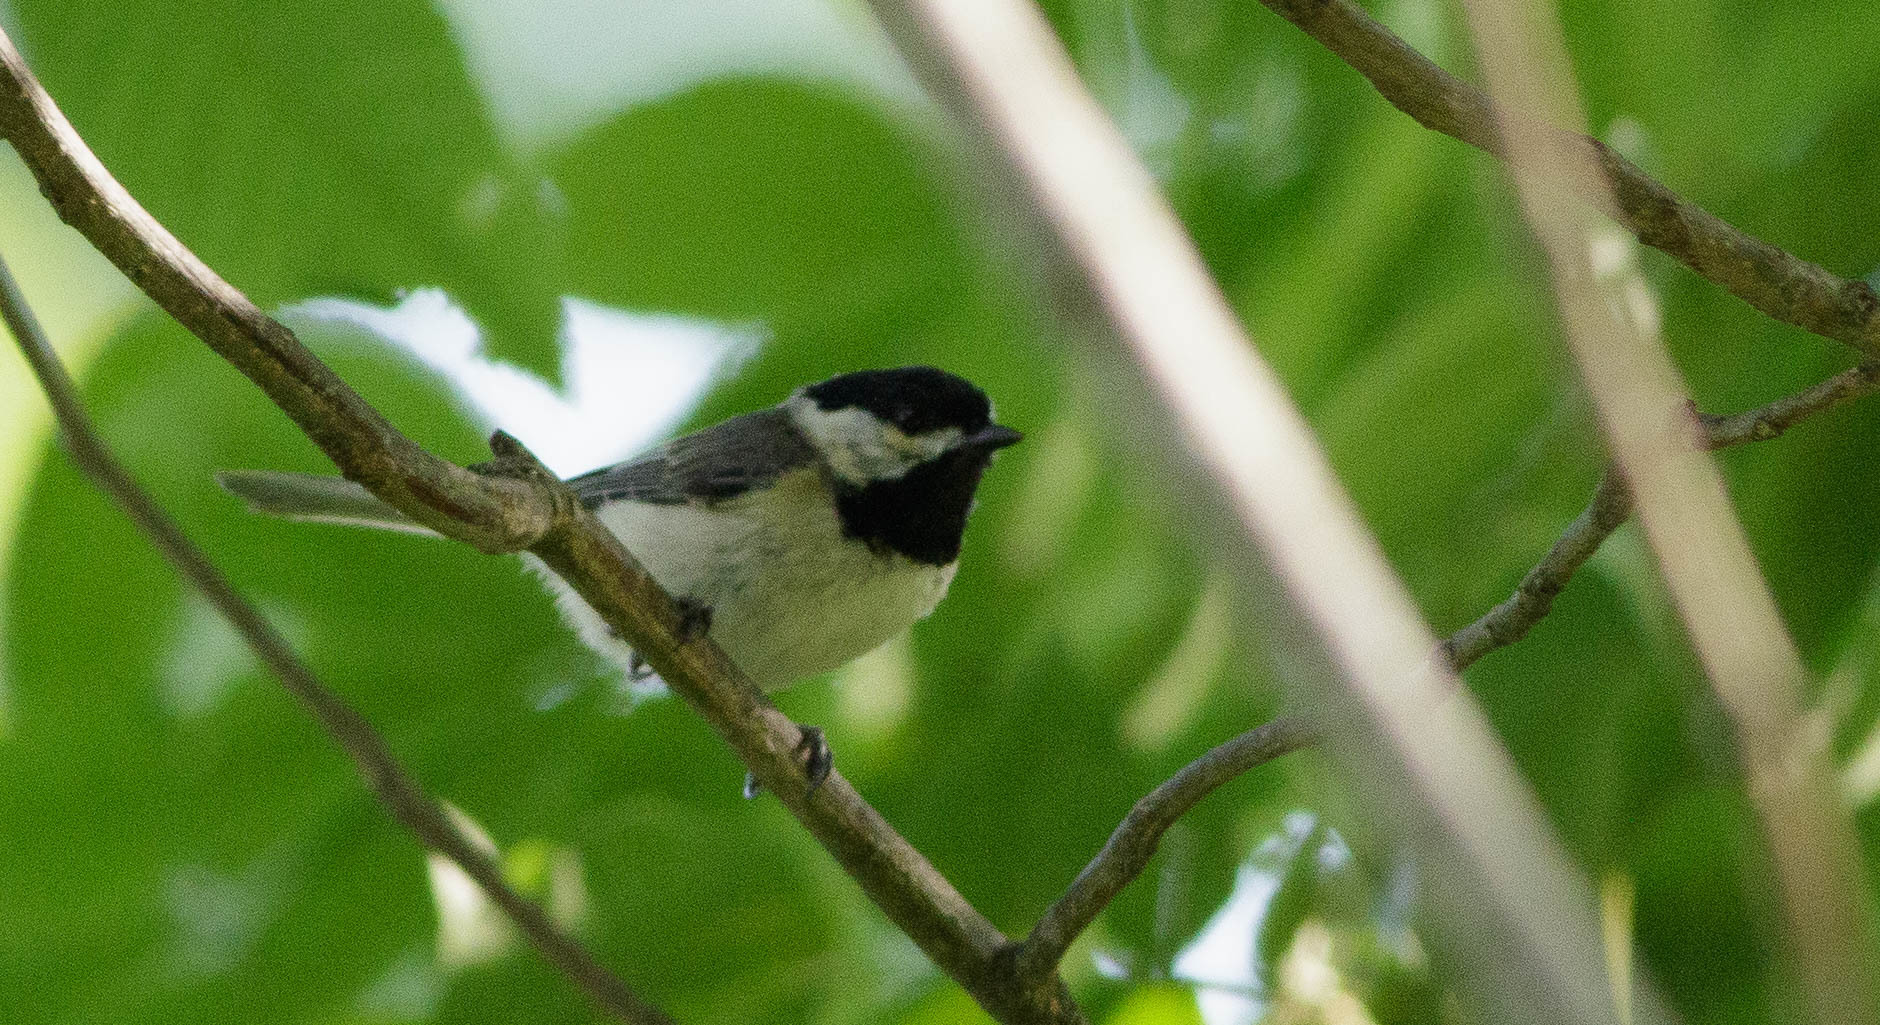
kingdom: Animalia
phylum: Chordata
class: Aves
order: Passeriformes
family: Paridae
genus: Poecile
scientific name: Poecile carolinensis
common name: Carolina chickadee
